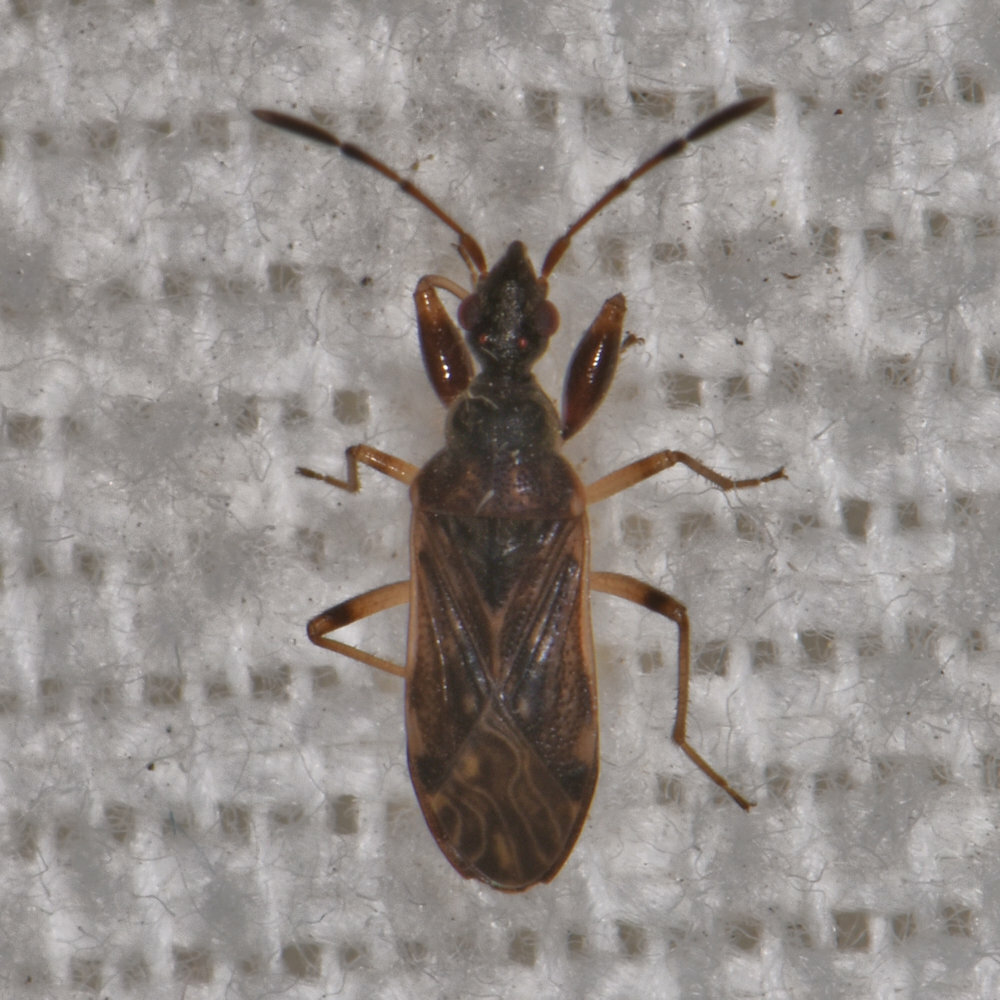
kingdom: Animalia
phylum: Arthropoda
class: Insecta
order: Hemiptera
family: Rhyparochromidae
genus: Heraeus
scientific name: Heraeus plebejus
